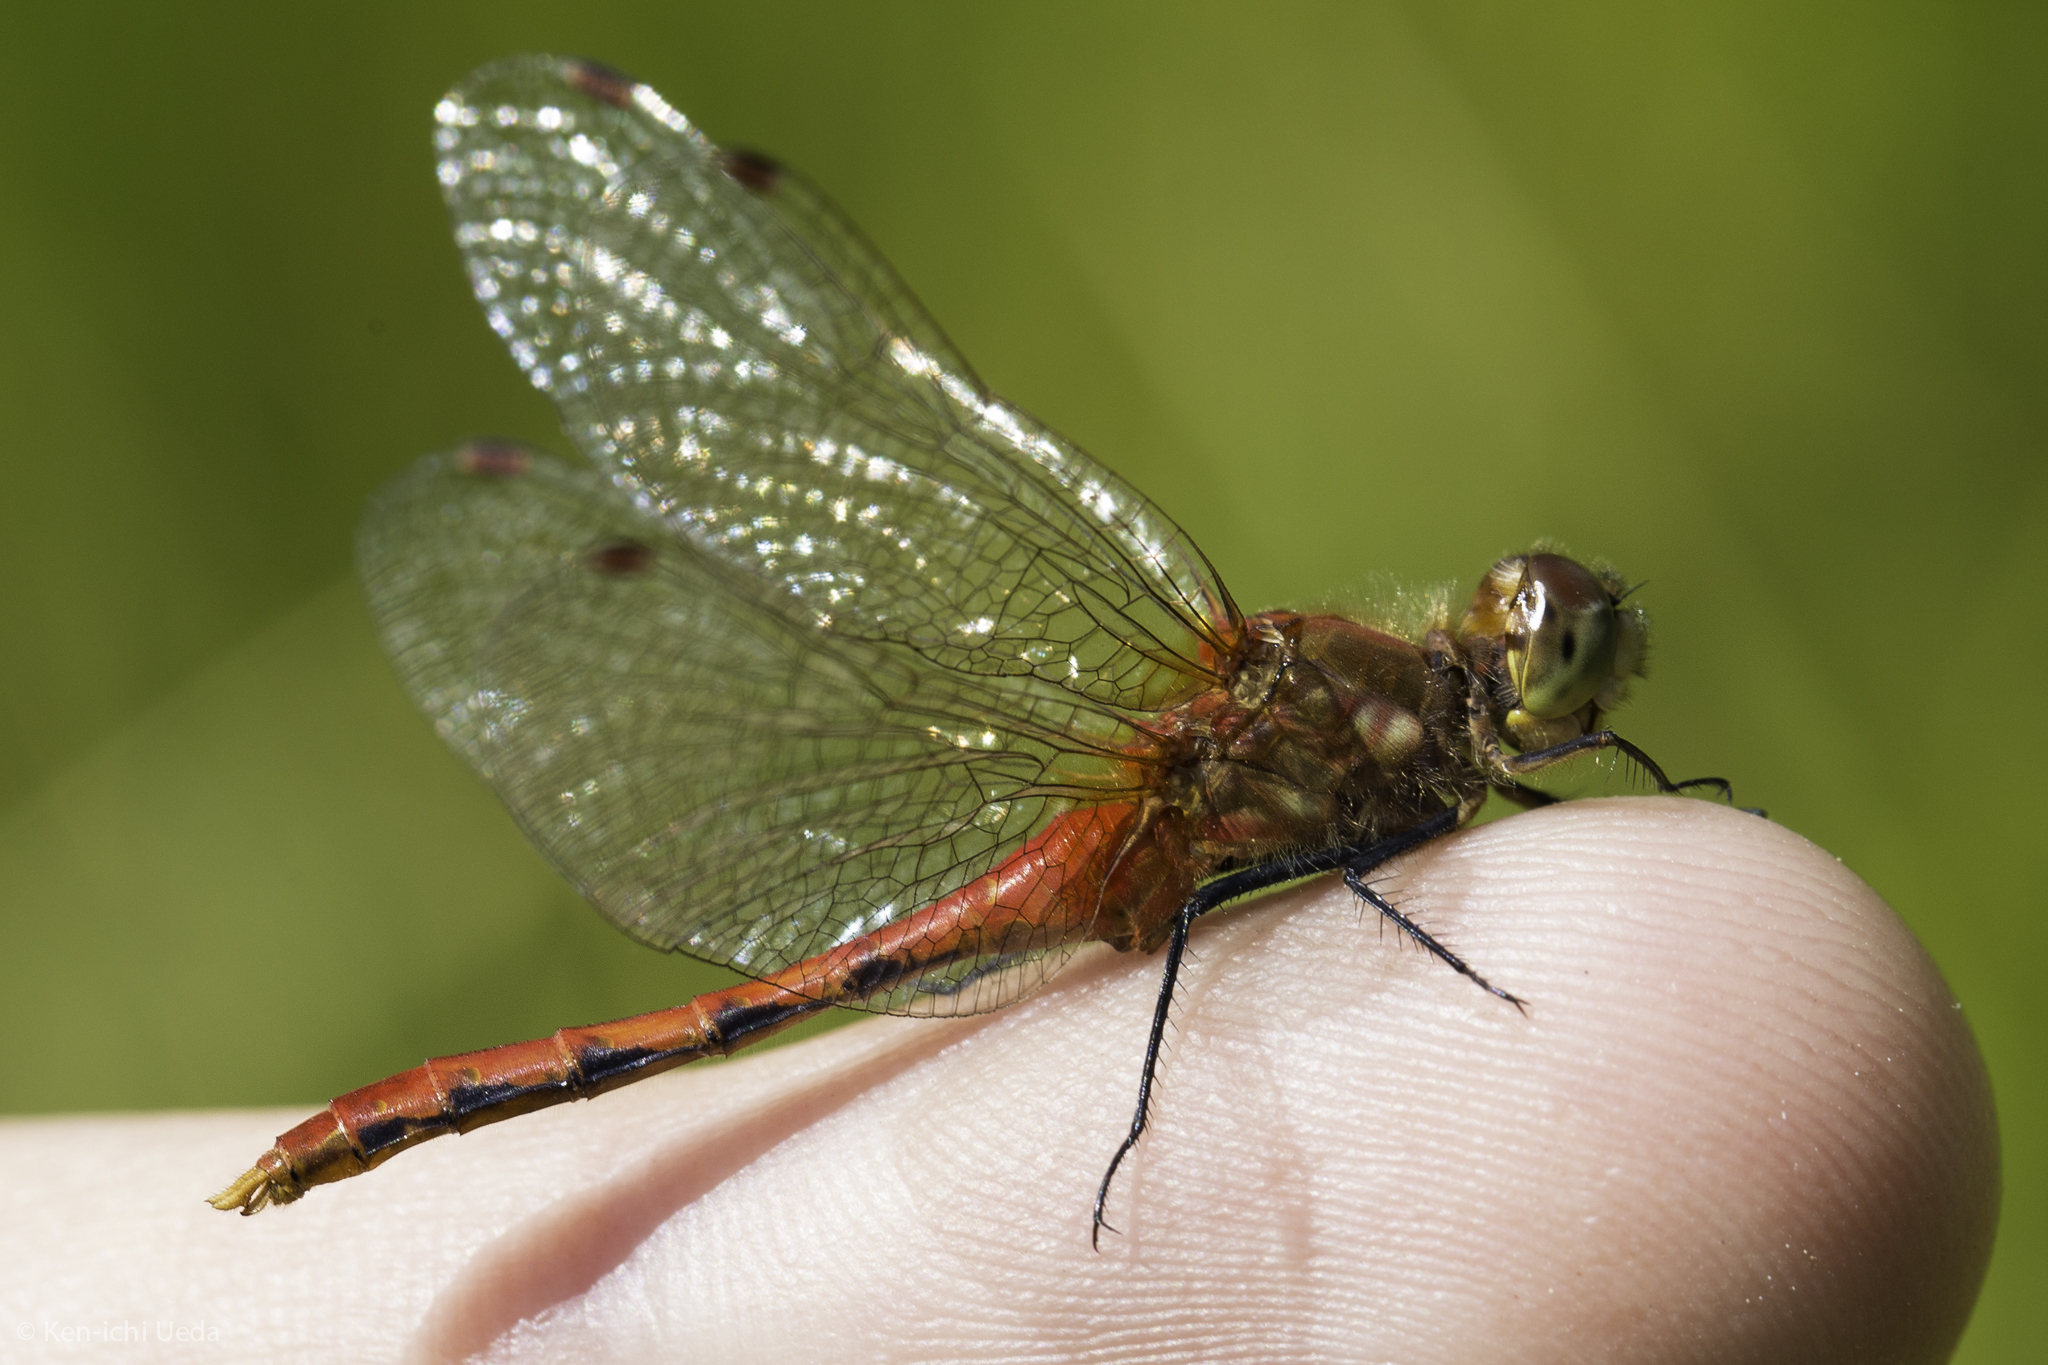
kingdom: Animalia
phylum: Arthropoda
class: Insecta
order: Odonata
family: Libellulidae
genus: Sympetrum
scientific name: Sympetrum obtrusum
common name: White-faced meadowhawk
